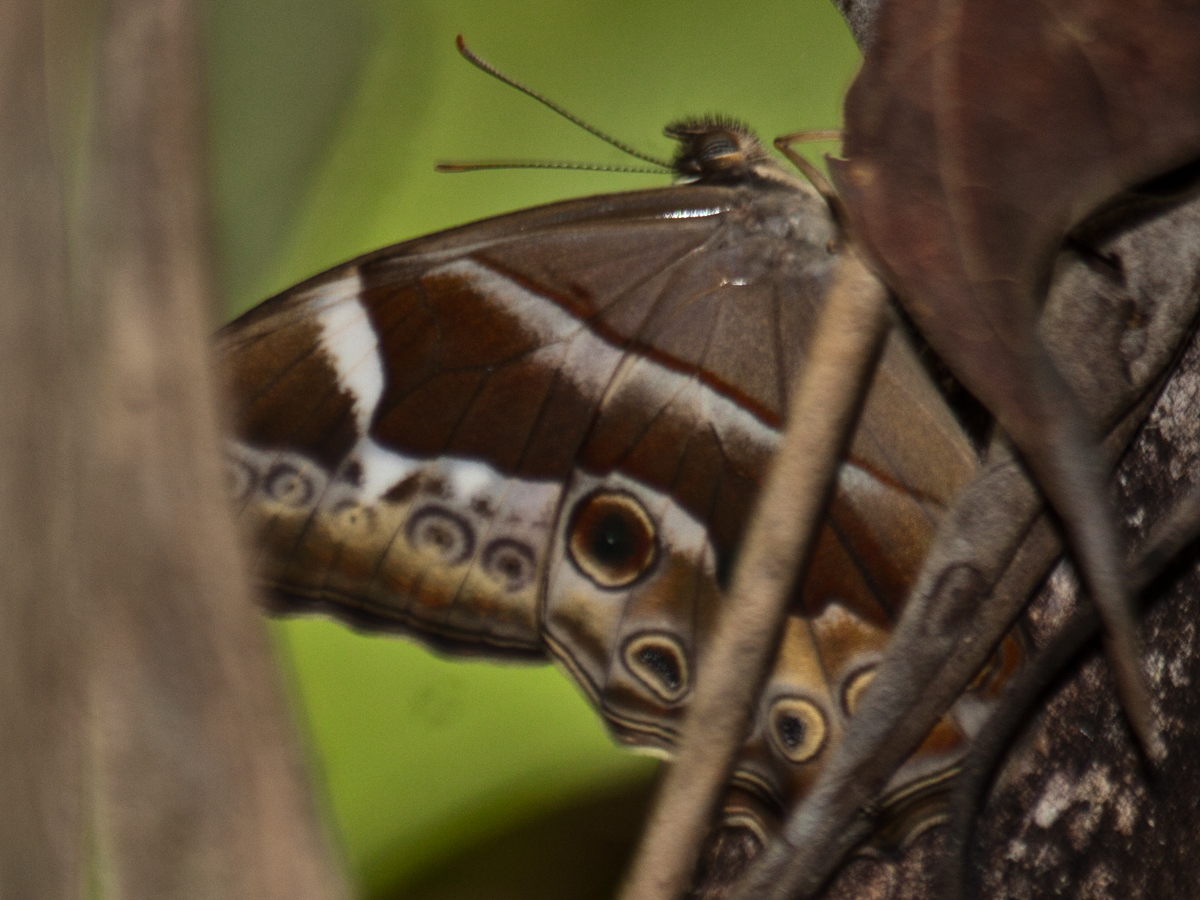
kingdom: Animalia
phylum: Arthropoda
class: Insecta
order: Lepidoptera
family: Nymphalidae
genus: Lethe
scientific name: Lethe mekara
